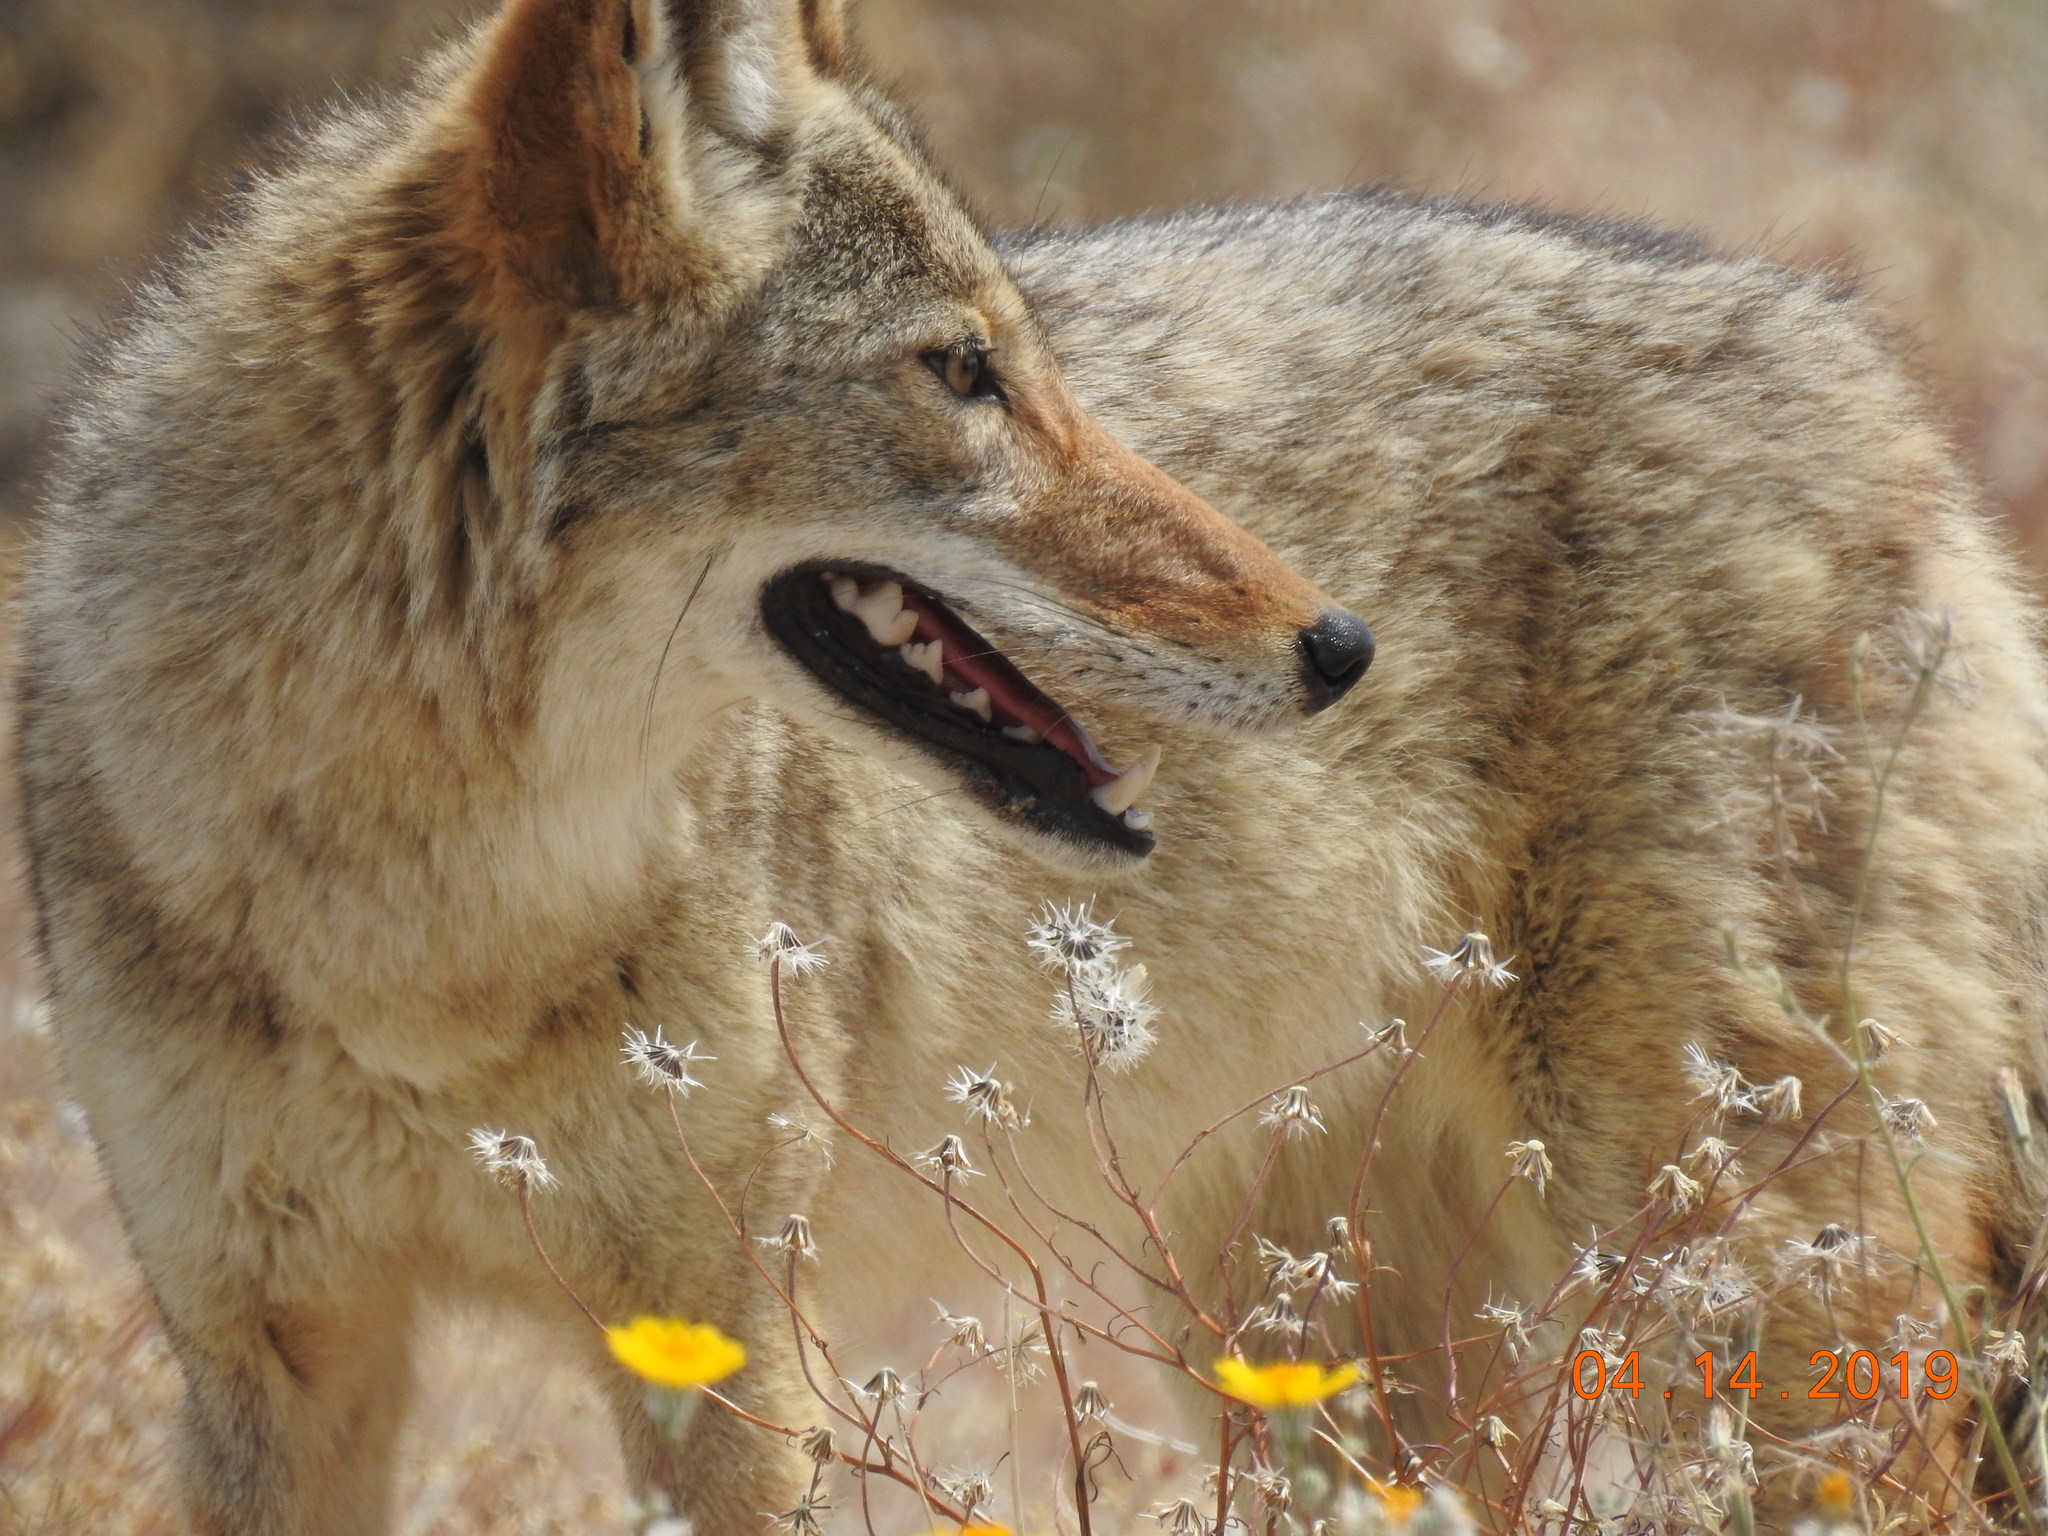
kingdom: Animalia
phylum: Chordata
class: Mammalia
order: Carnivora
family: Canidae
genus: Canis
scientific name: Canis latrans
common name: Coyote
